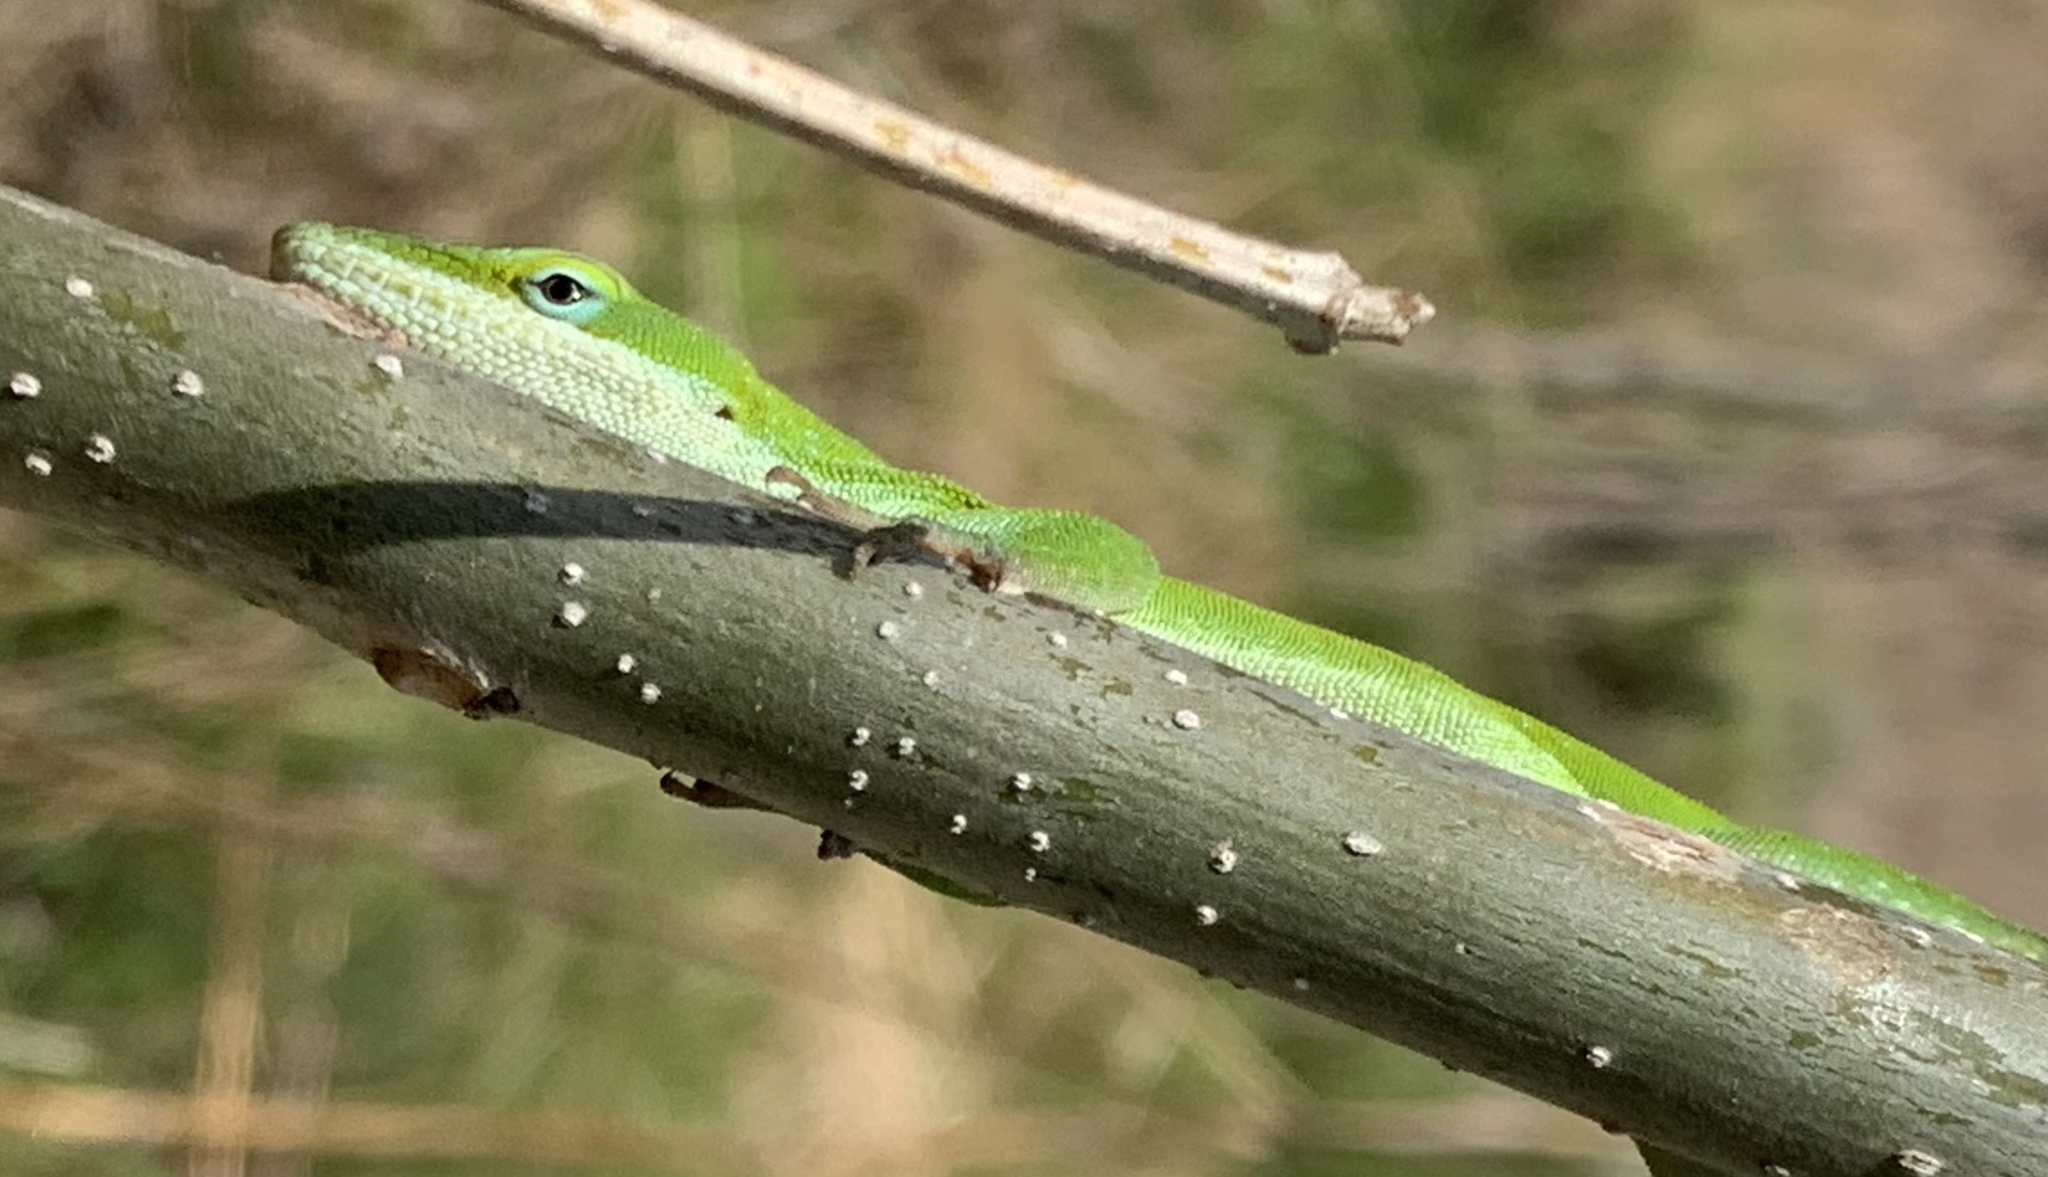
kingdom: Animalia
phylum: Chordata
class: Squamata
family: Dactyloidae
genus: Anolis
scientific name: Anolis carolinensis
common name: Green anole
